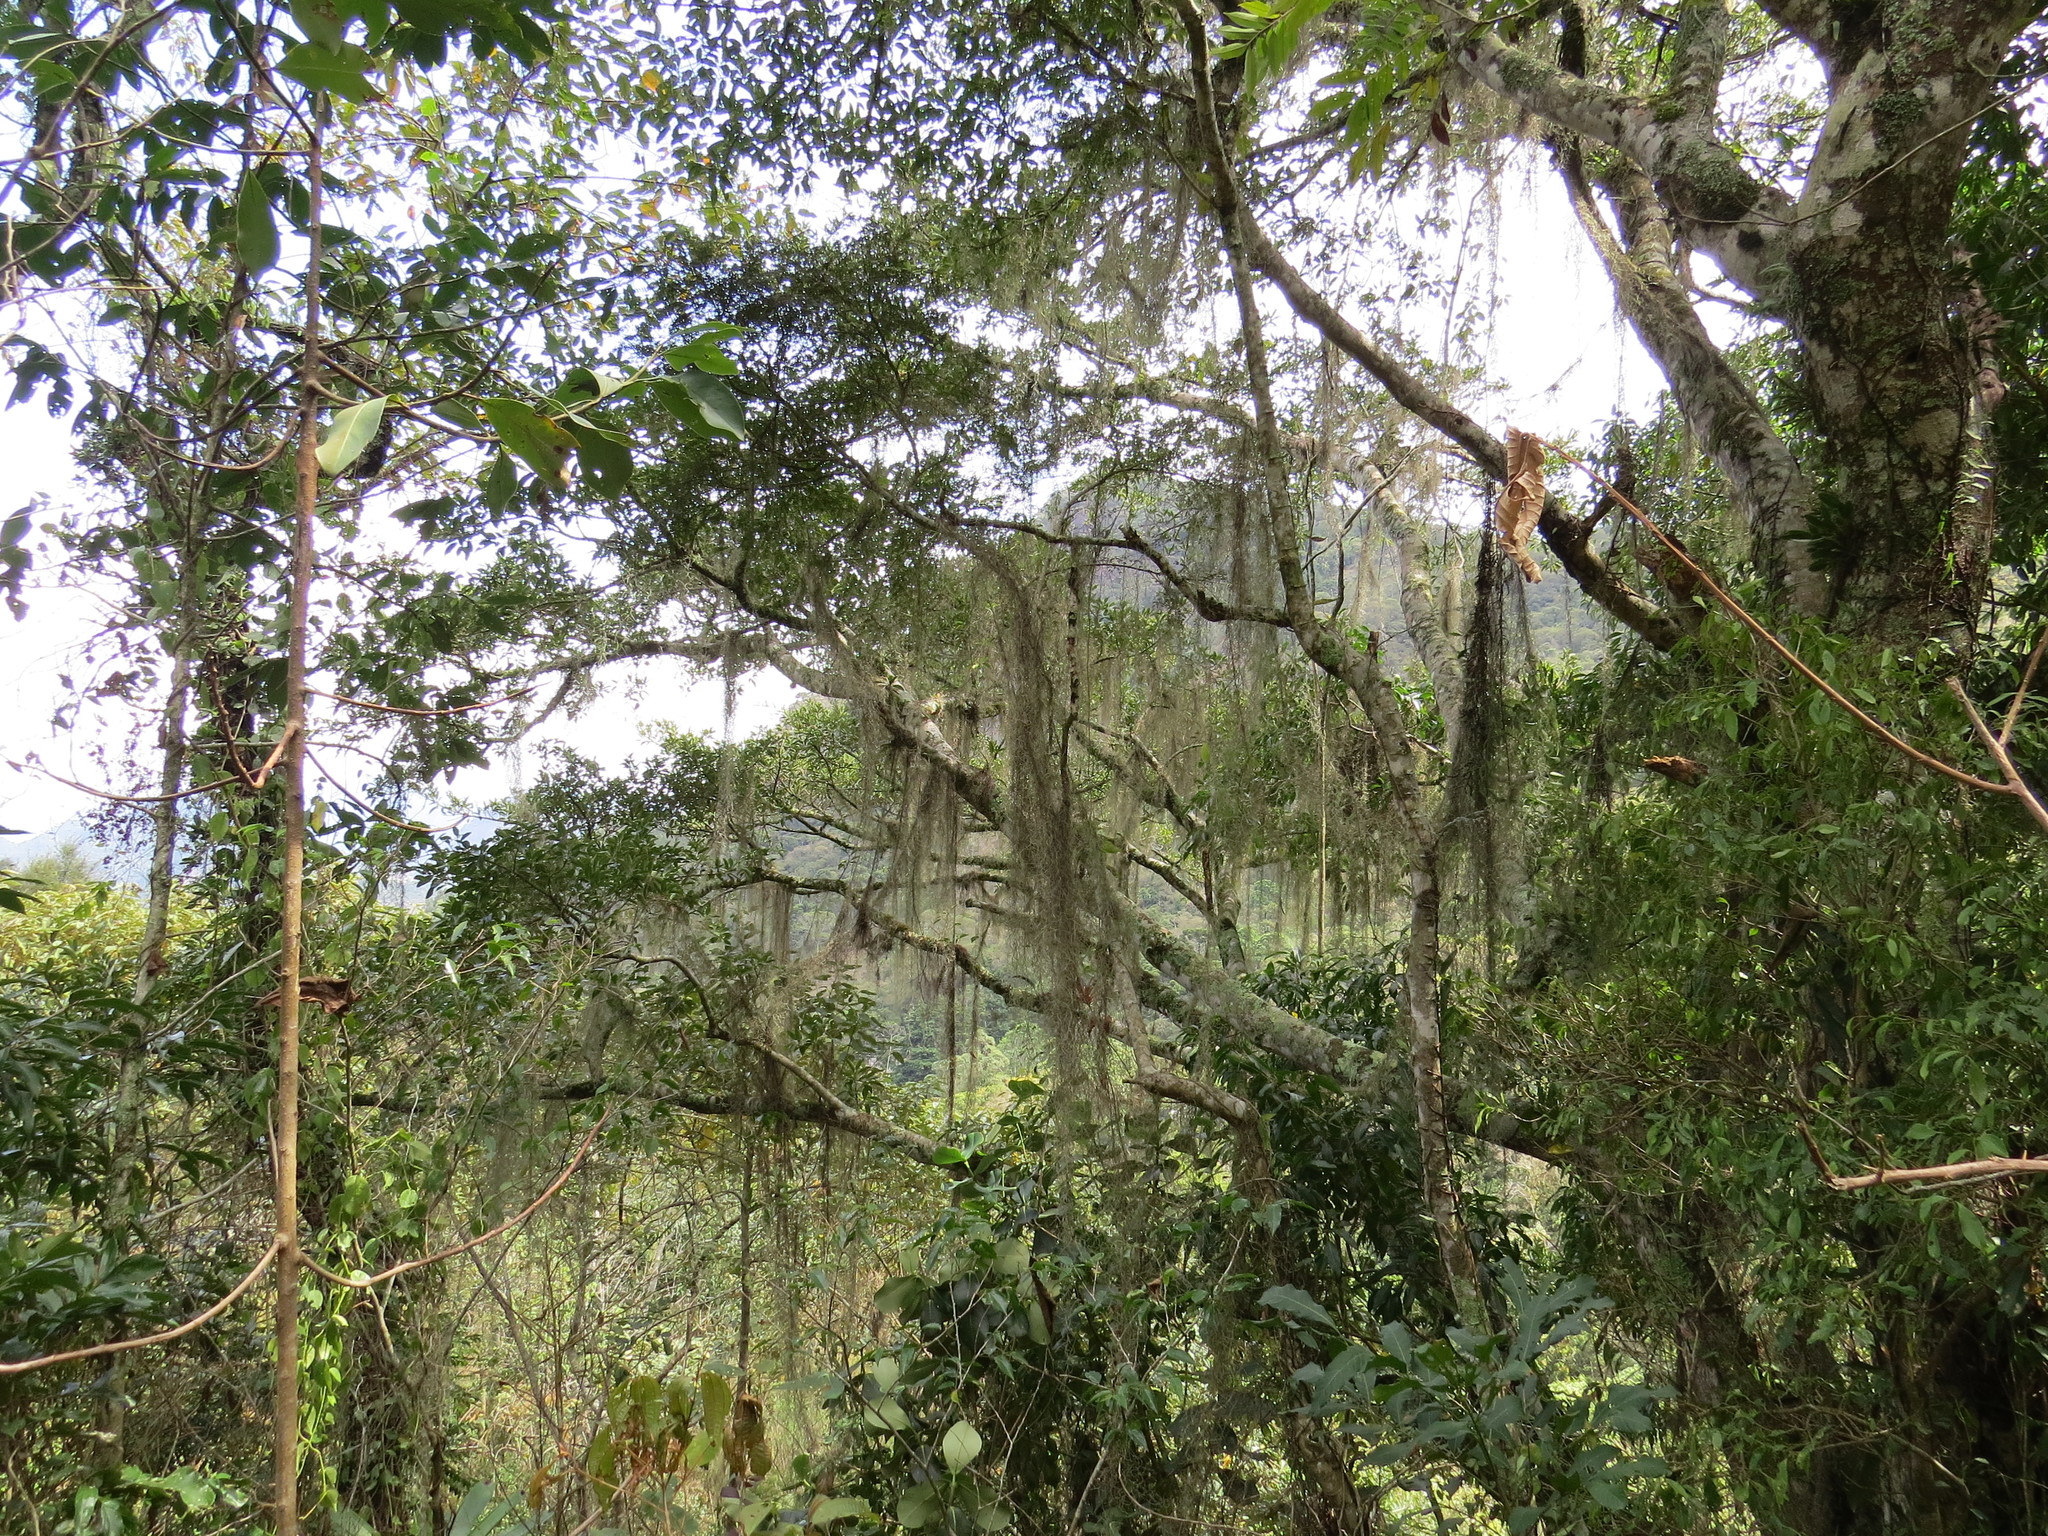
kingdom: Plantae
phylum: Tracheophyta
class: Liliopsida
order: Poales
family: Bromeliaceae
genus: Tillandsia
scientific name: Tillandsia usneoides
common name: Spanish moss
